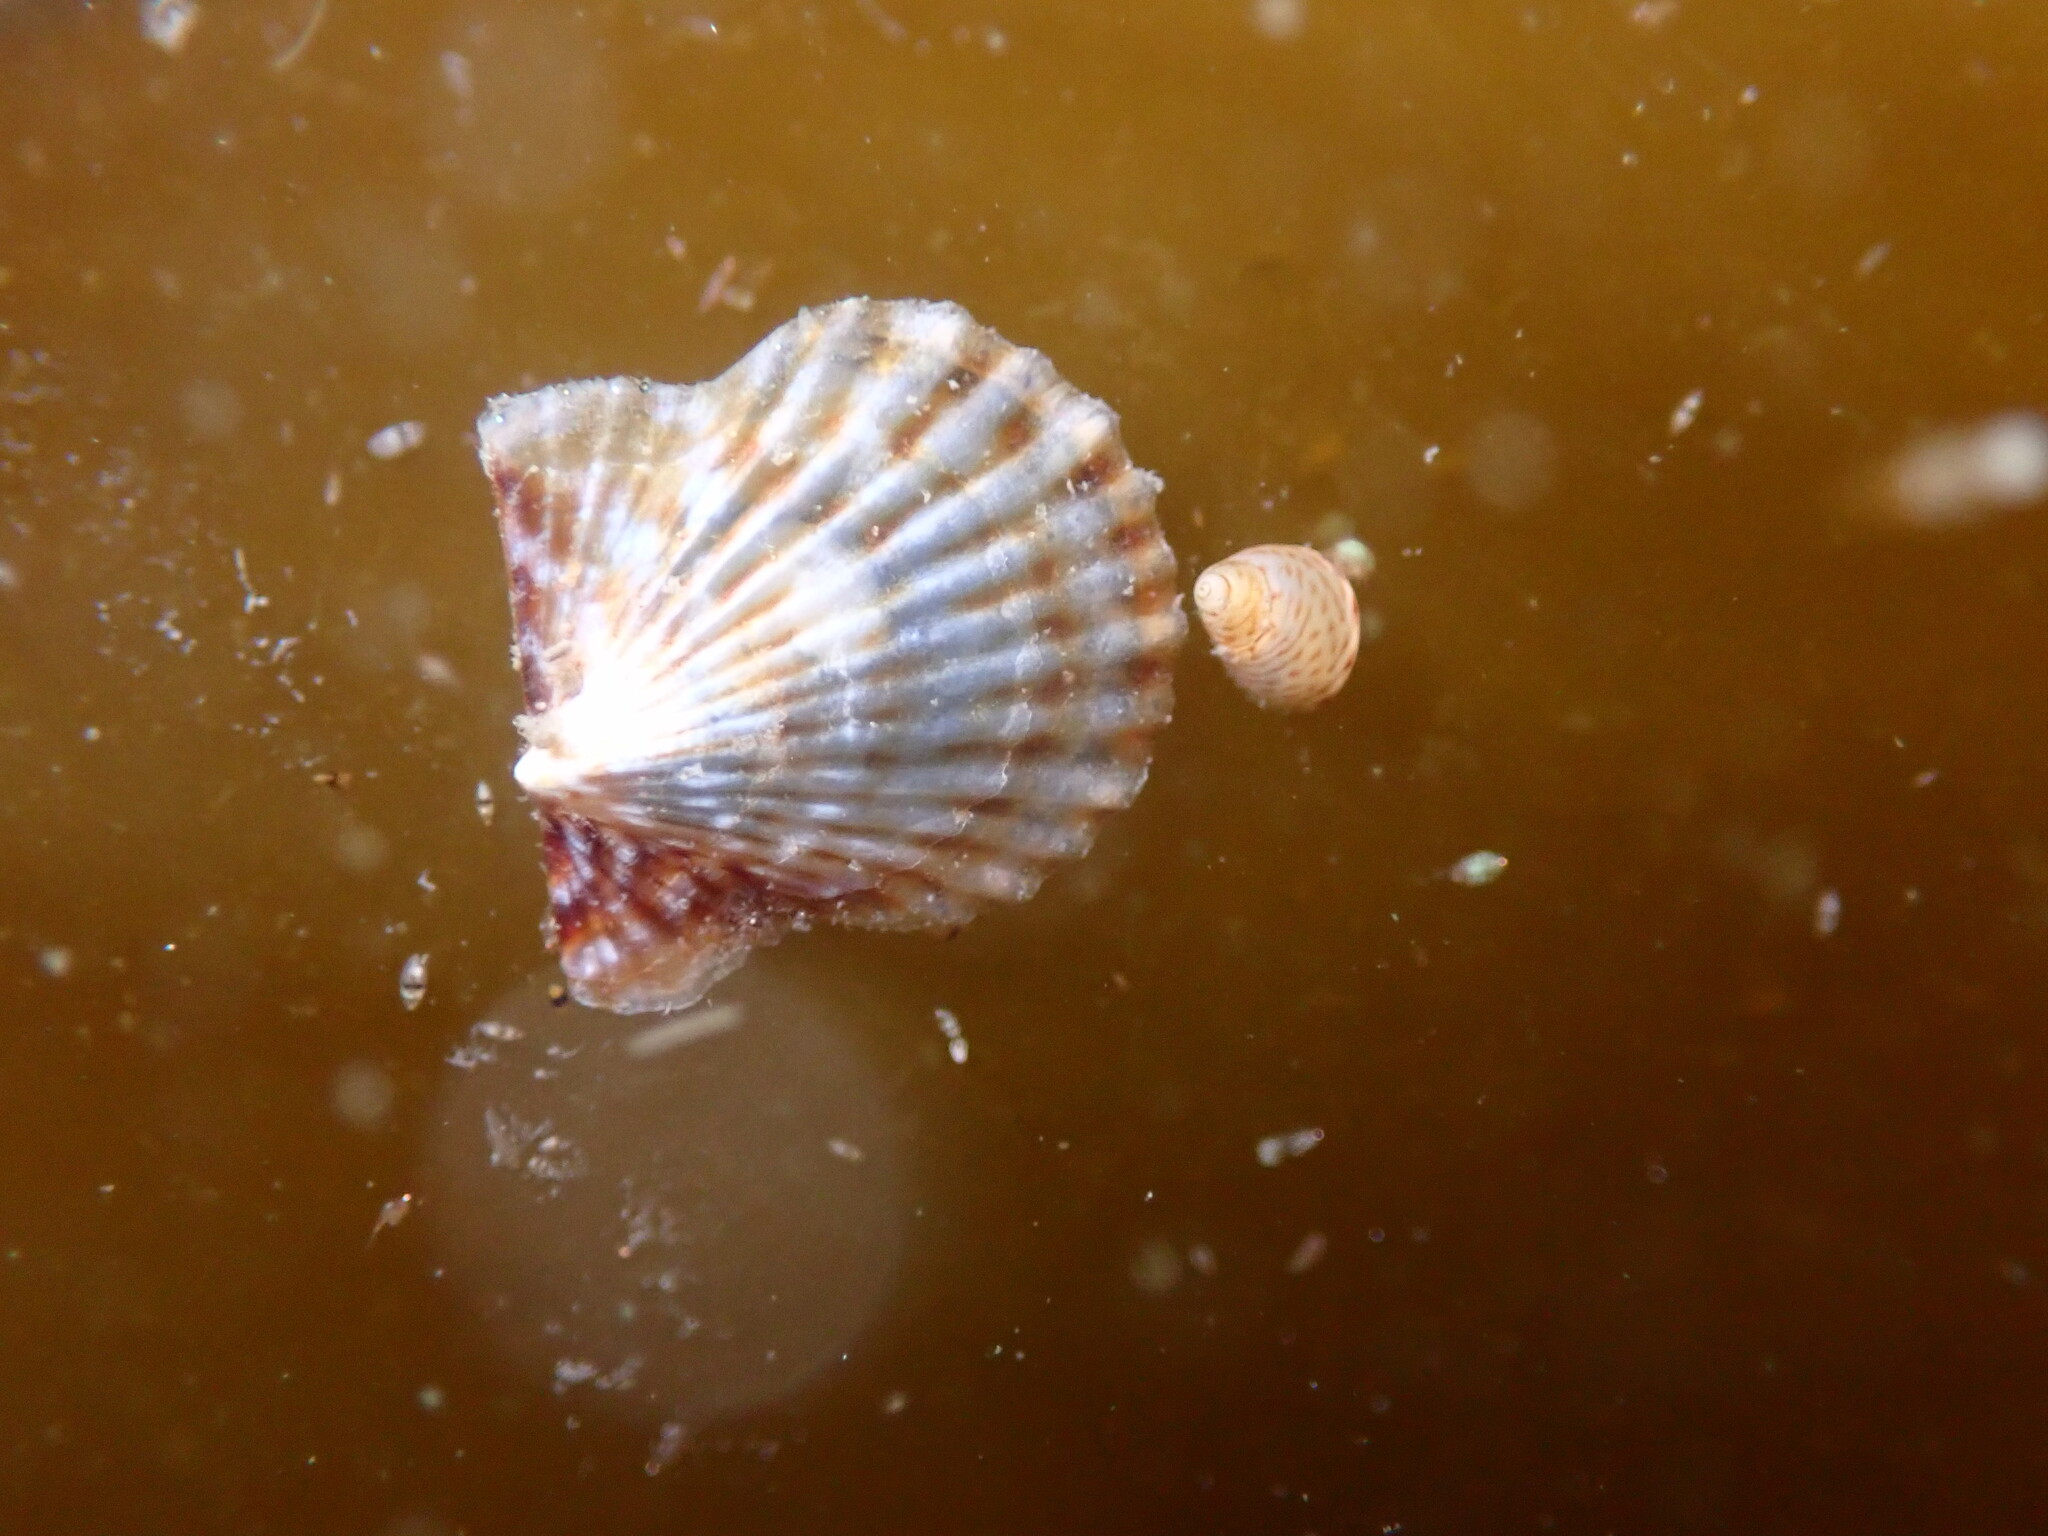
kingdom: Animalia
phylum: Mollusca
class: Bivalvia
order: Pectinida
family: Pectinidae
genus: Leptopecten
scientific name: Leptopecten latiauratus
